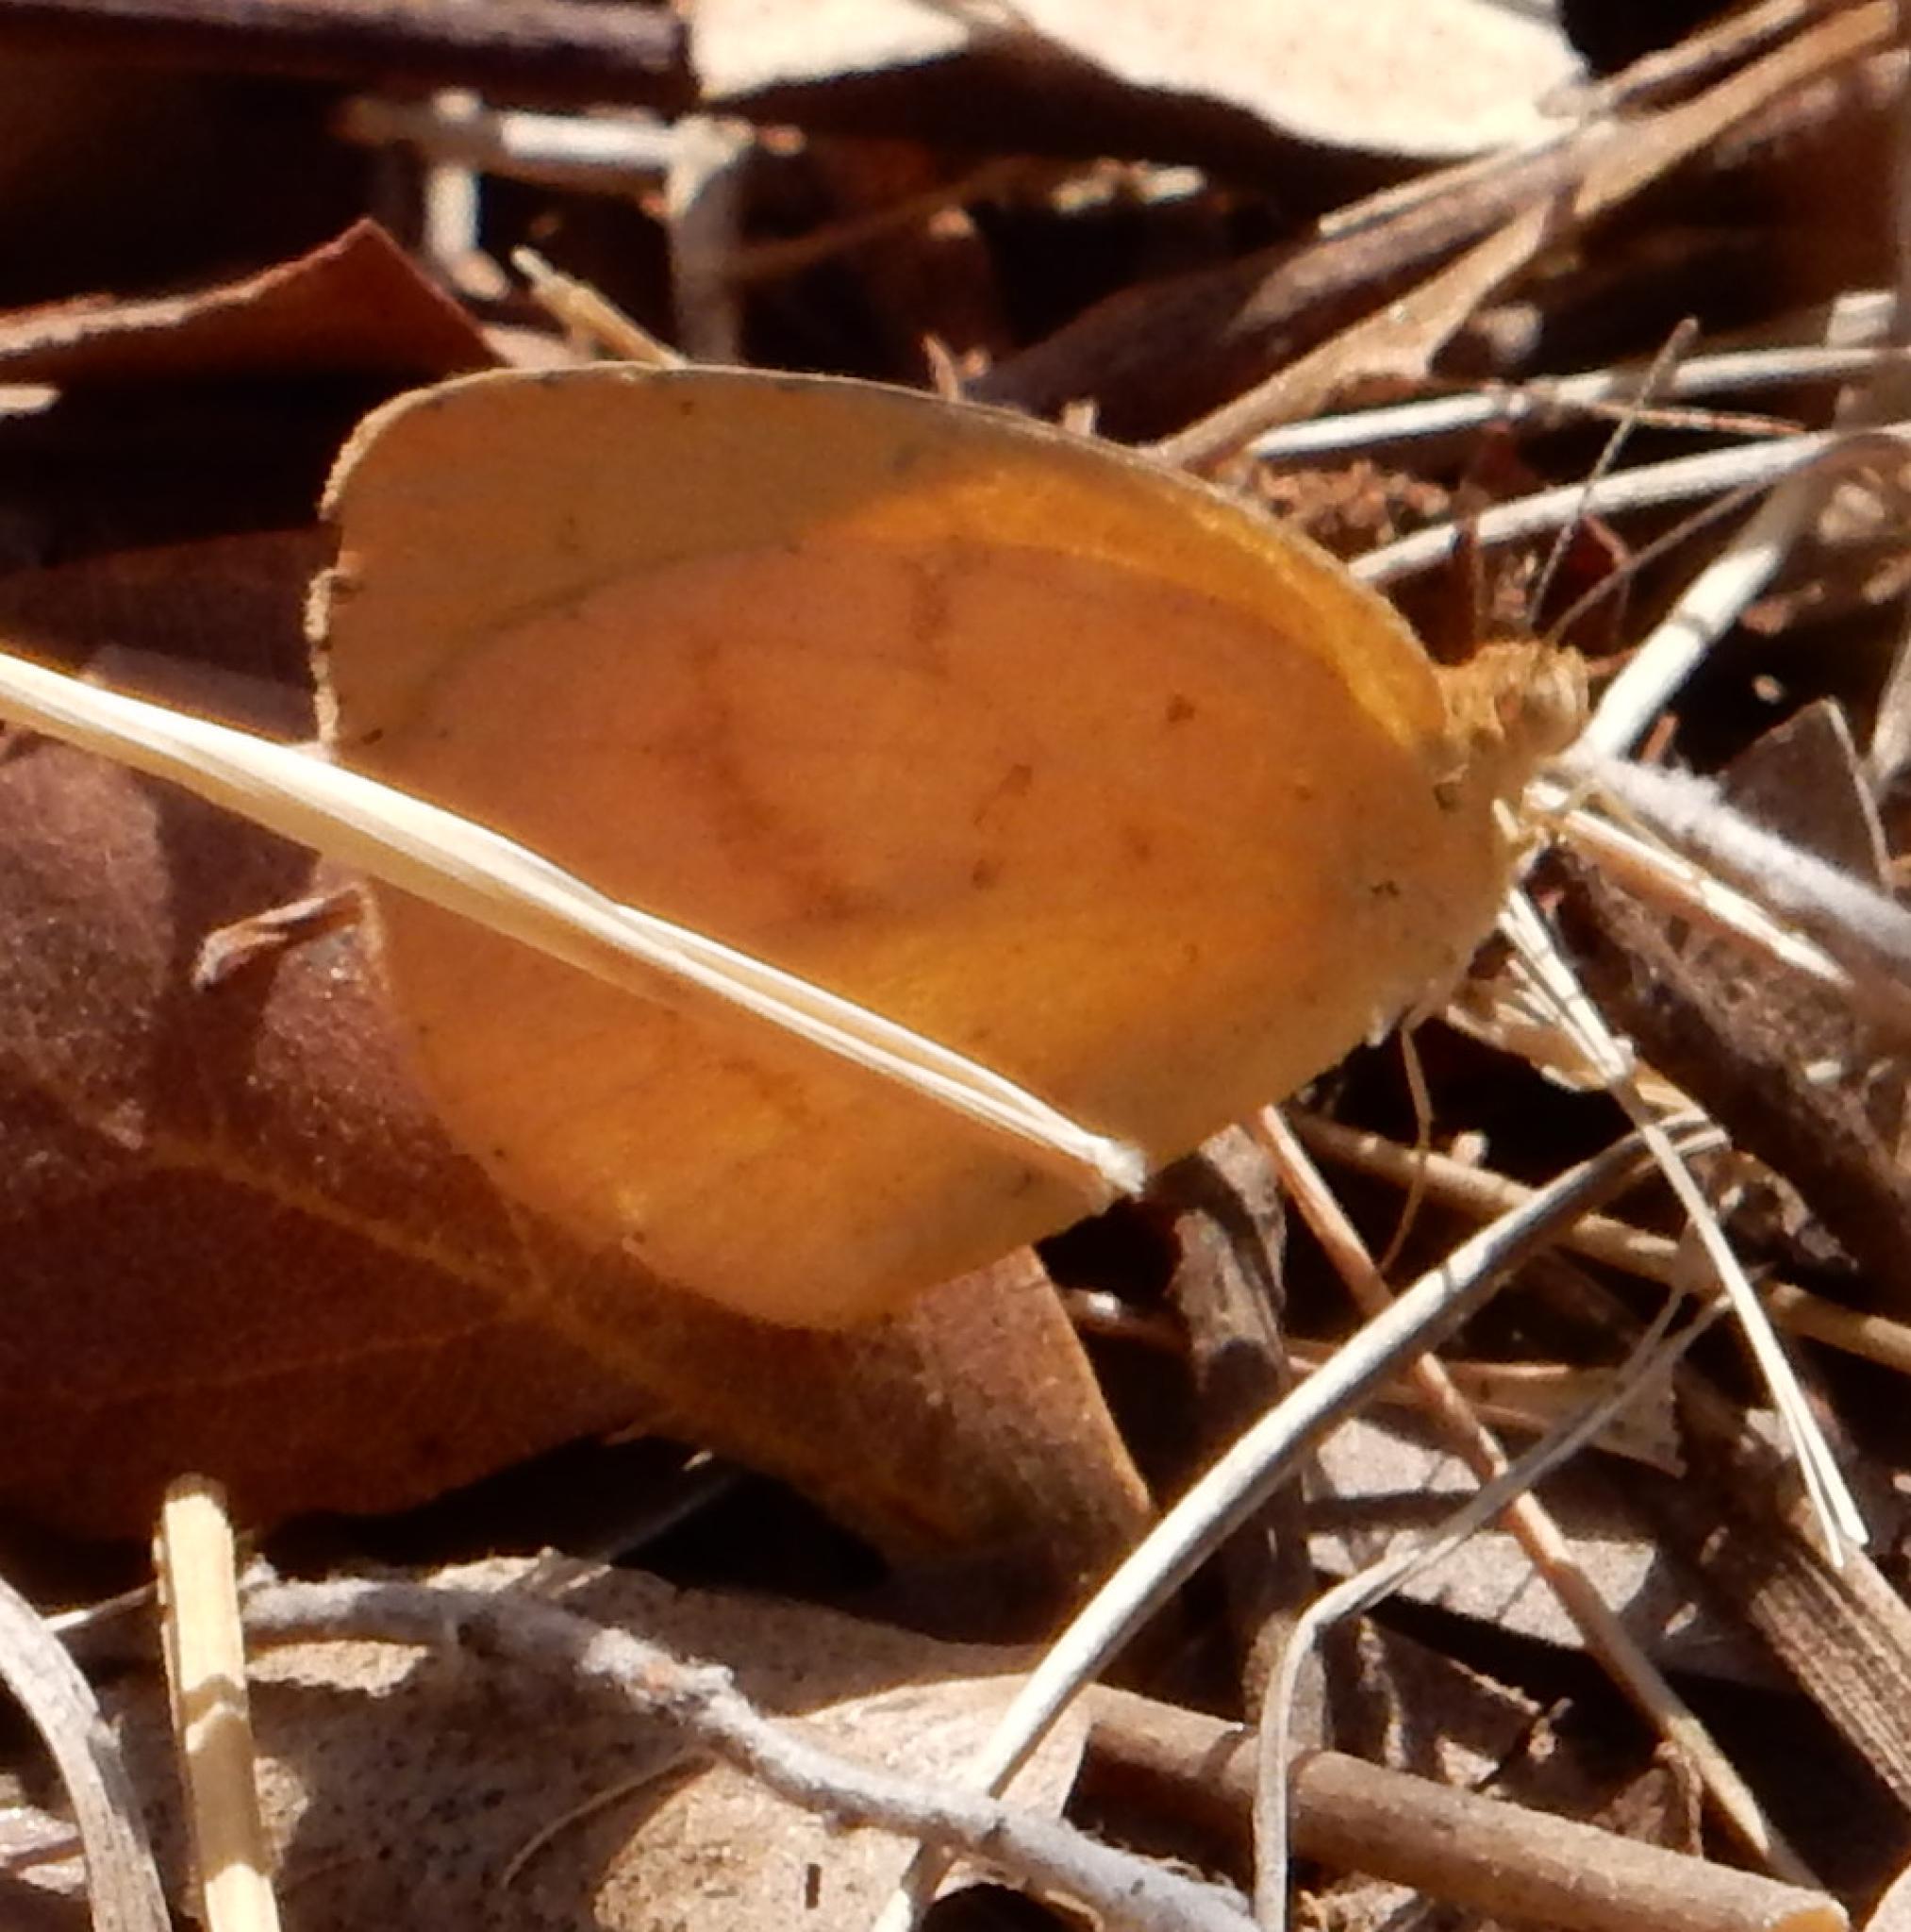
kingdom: Animalia
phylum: Arthropoda
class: Insecta
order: Lepidoptera
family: Pieridae
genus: Eurema
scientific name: Eurema brigitta
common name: Small grass yellow
